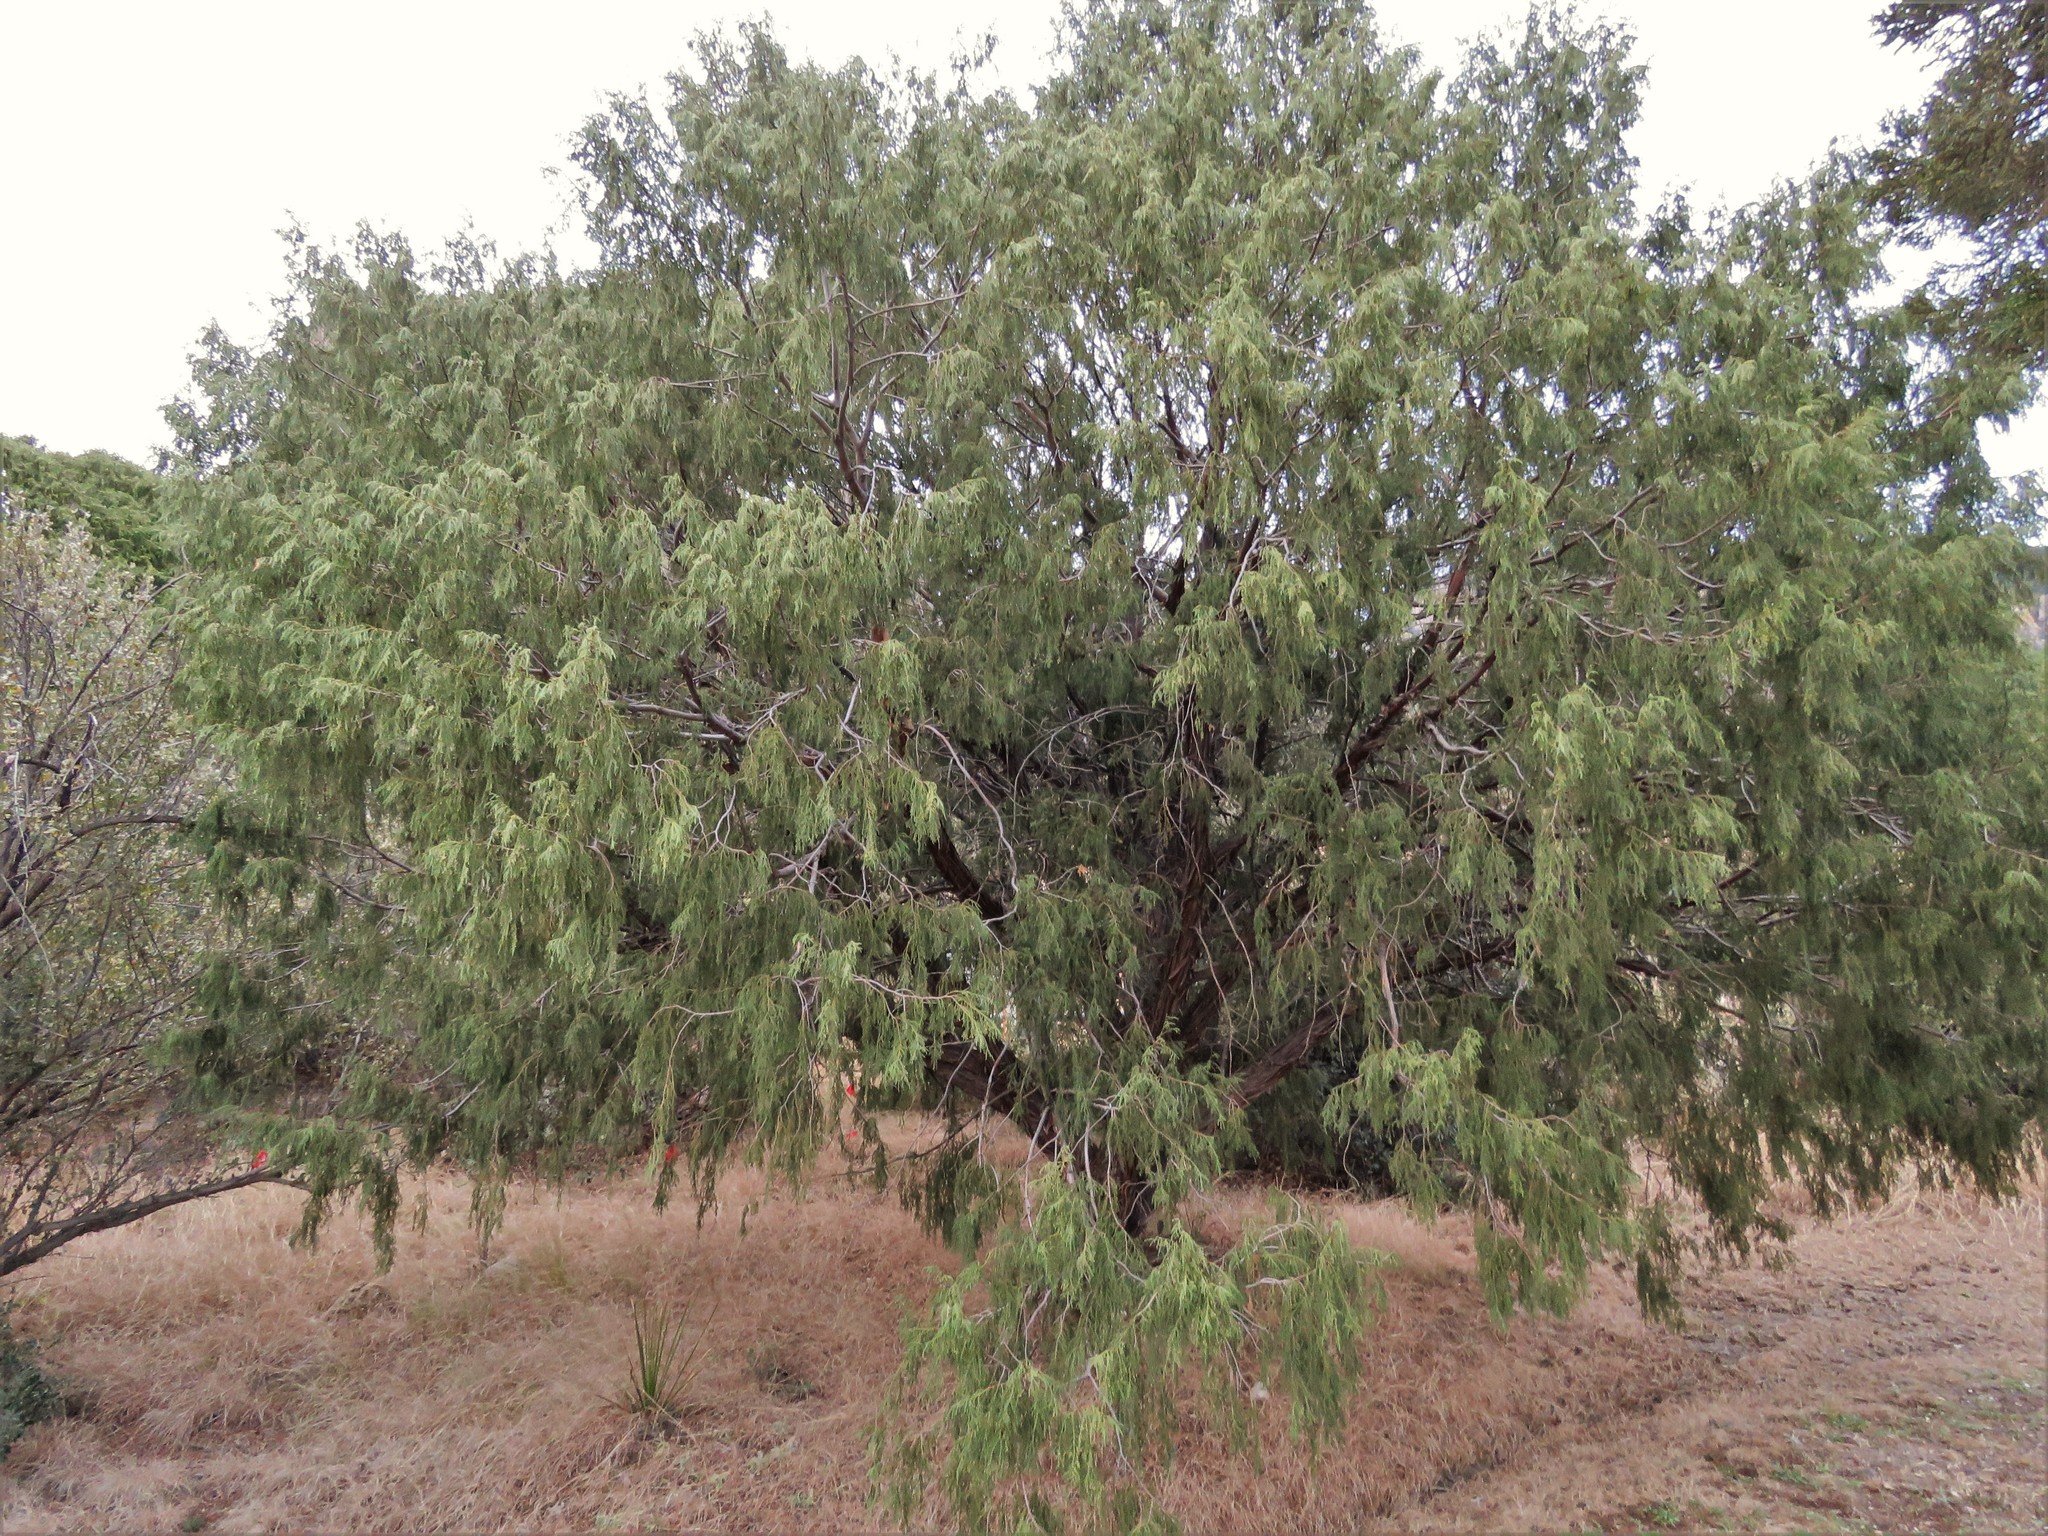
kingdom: Plantae
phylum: Tracheophyta
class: Pinopsida
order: Pinales
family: Cupressaceae
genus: Juniperus
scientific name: Juniperus flaccida
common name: Drooping juniper
